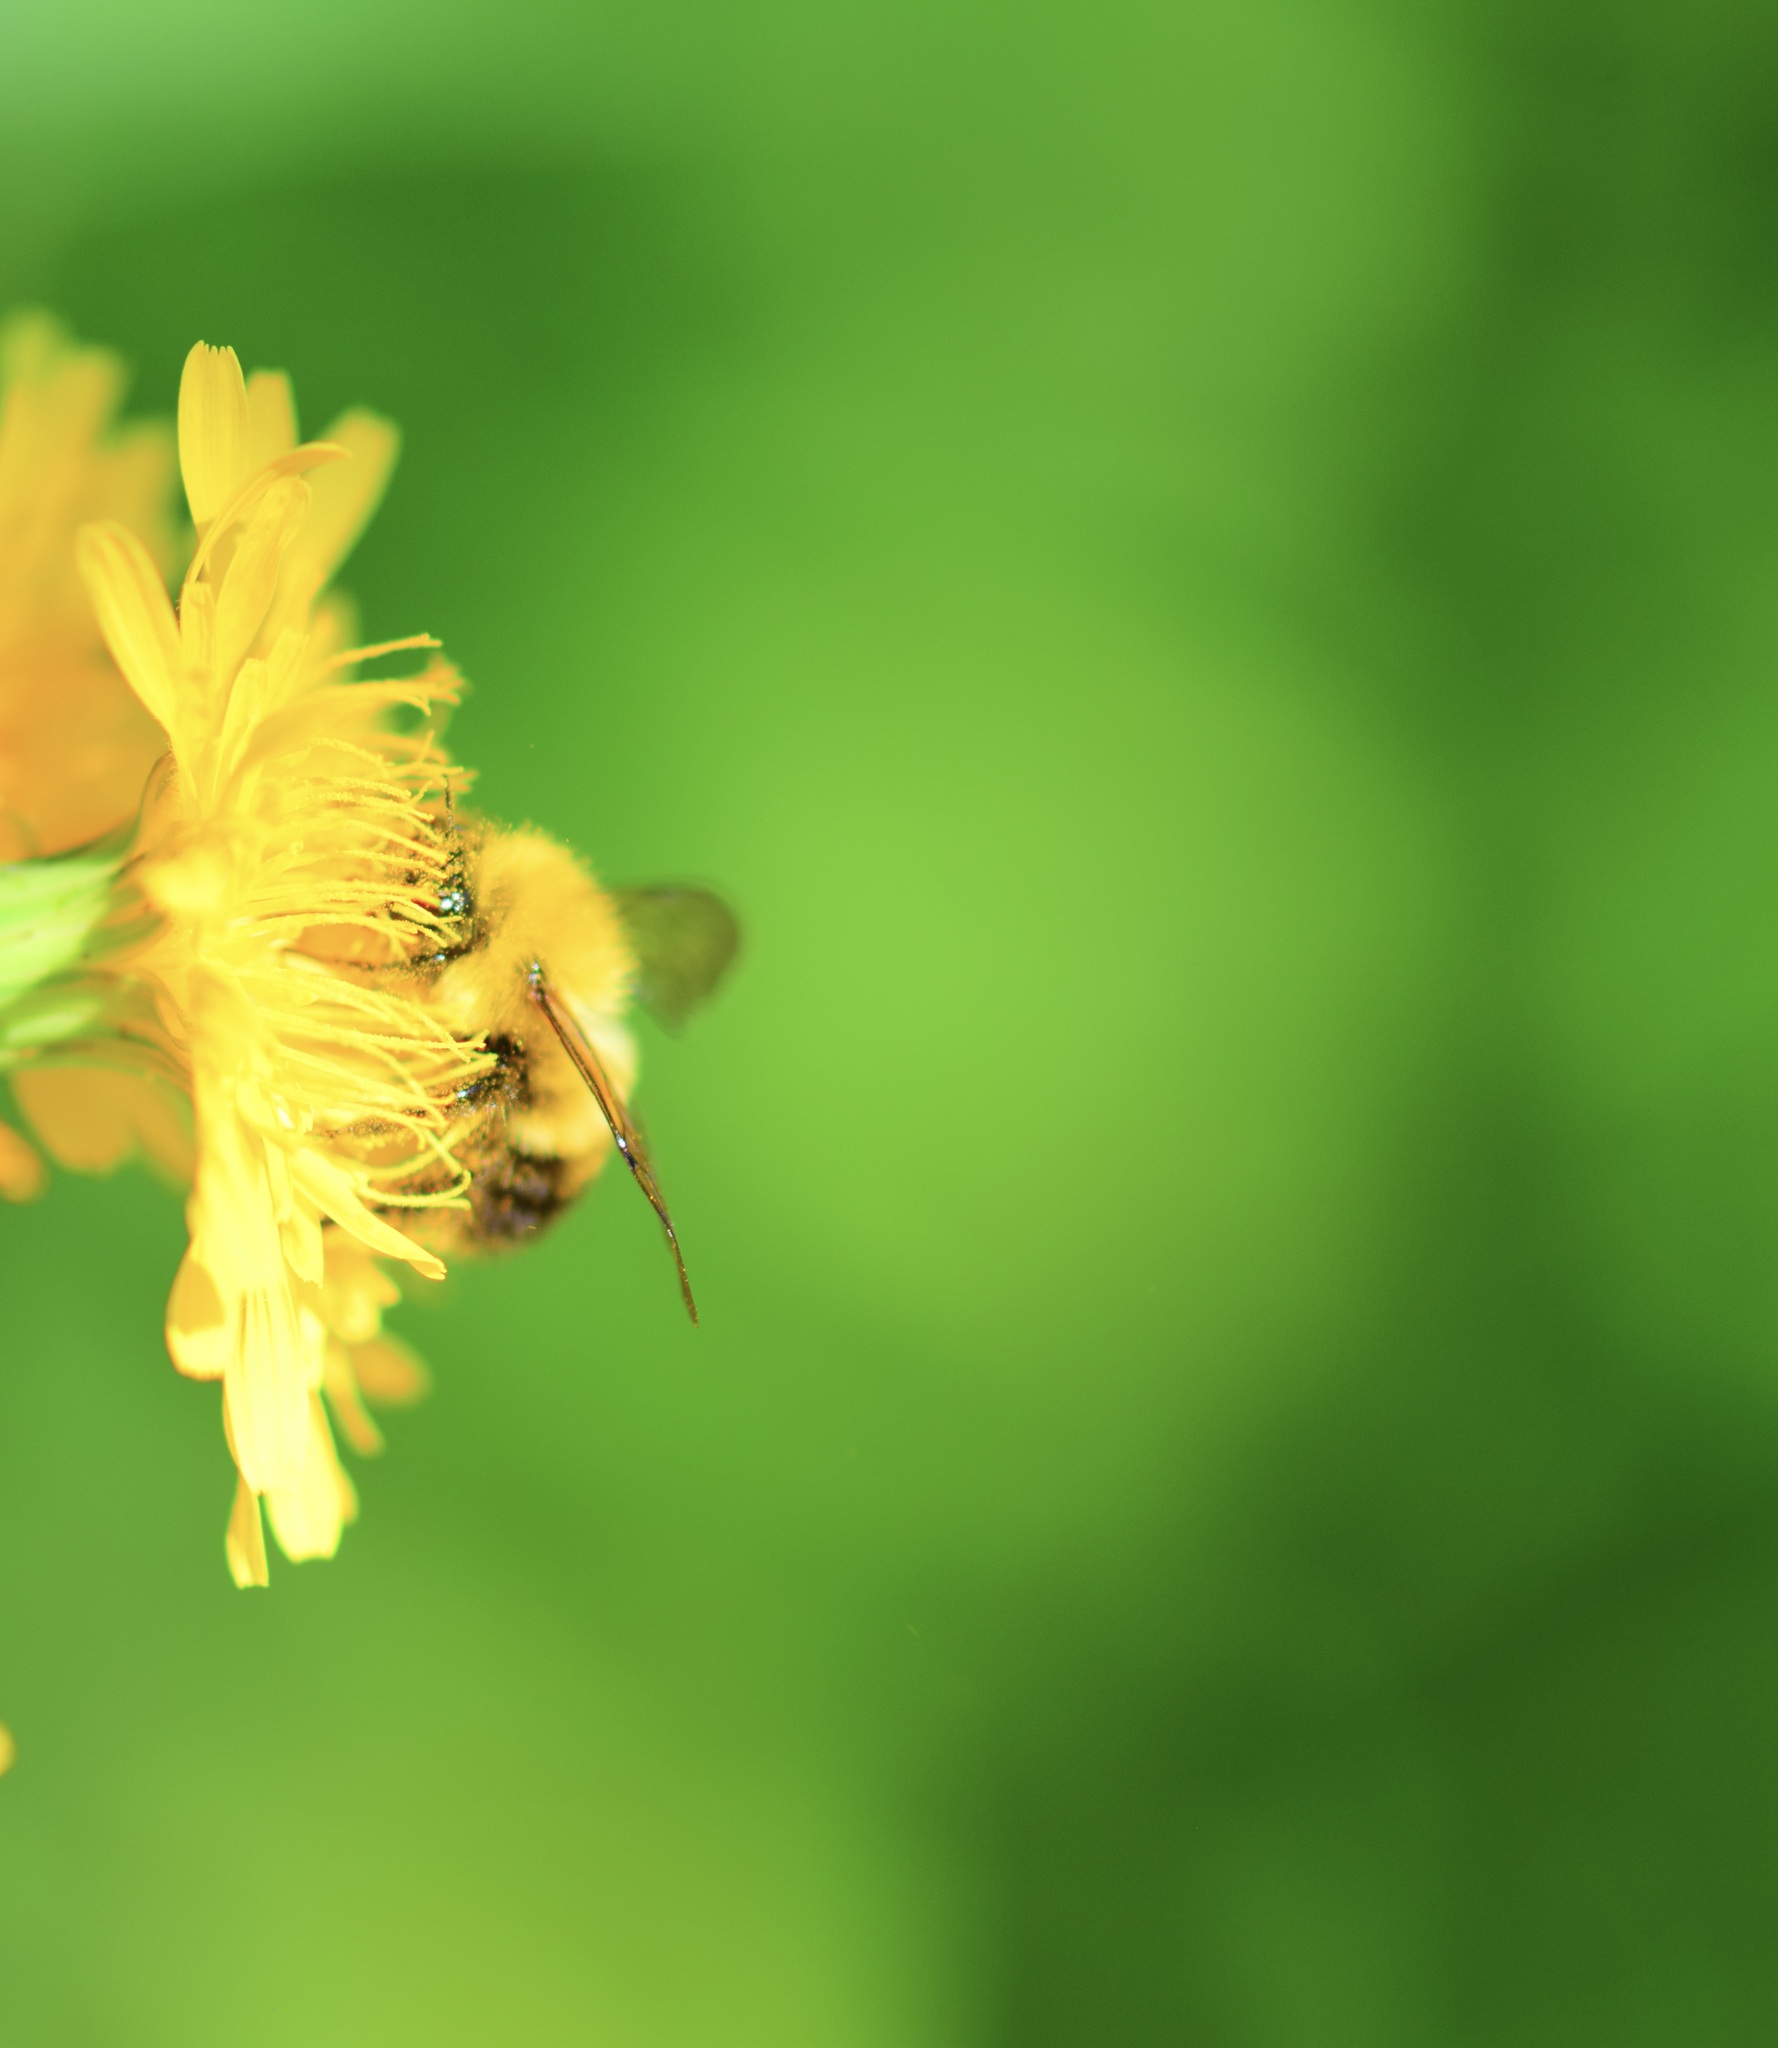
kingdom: Animalia
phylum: Arthropoda
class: Insecta
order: Hymenoptera
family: Apidae
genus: Bombus
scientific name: Bombus perplexus
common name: Confusing bumble bee
